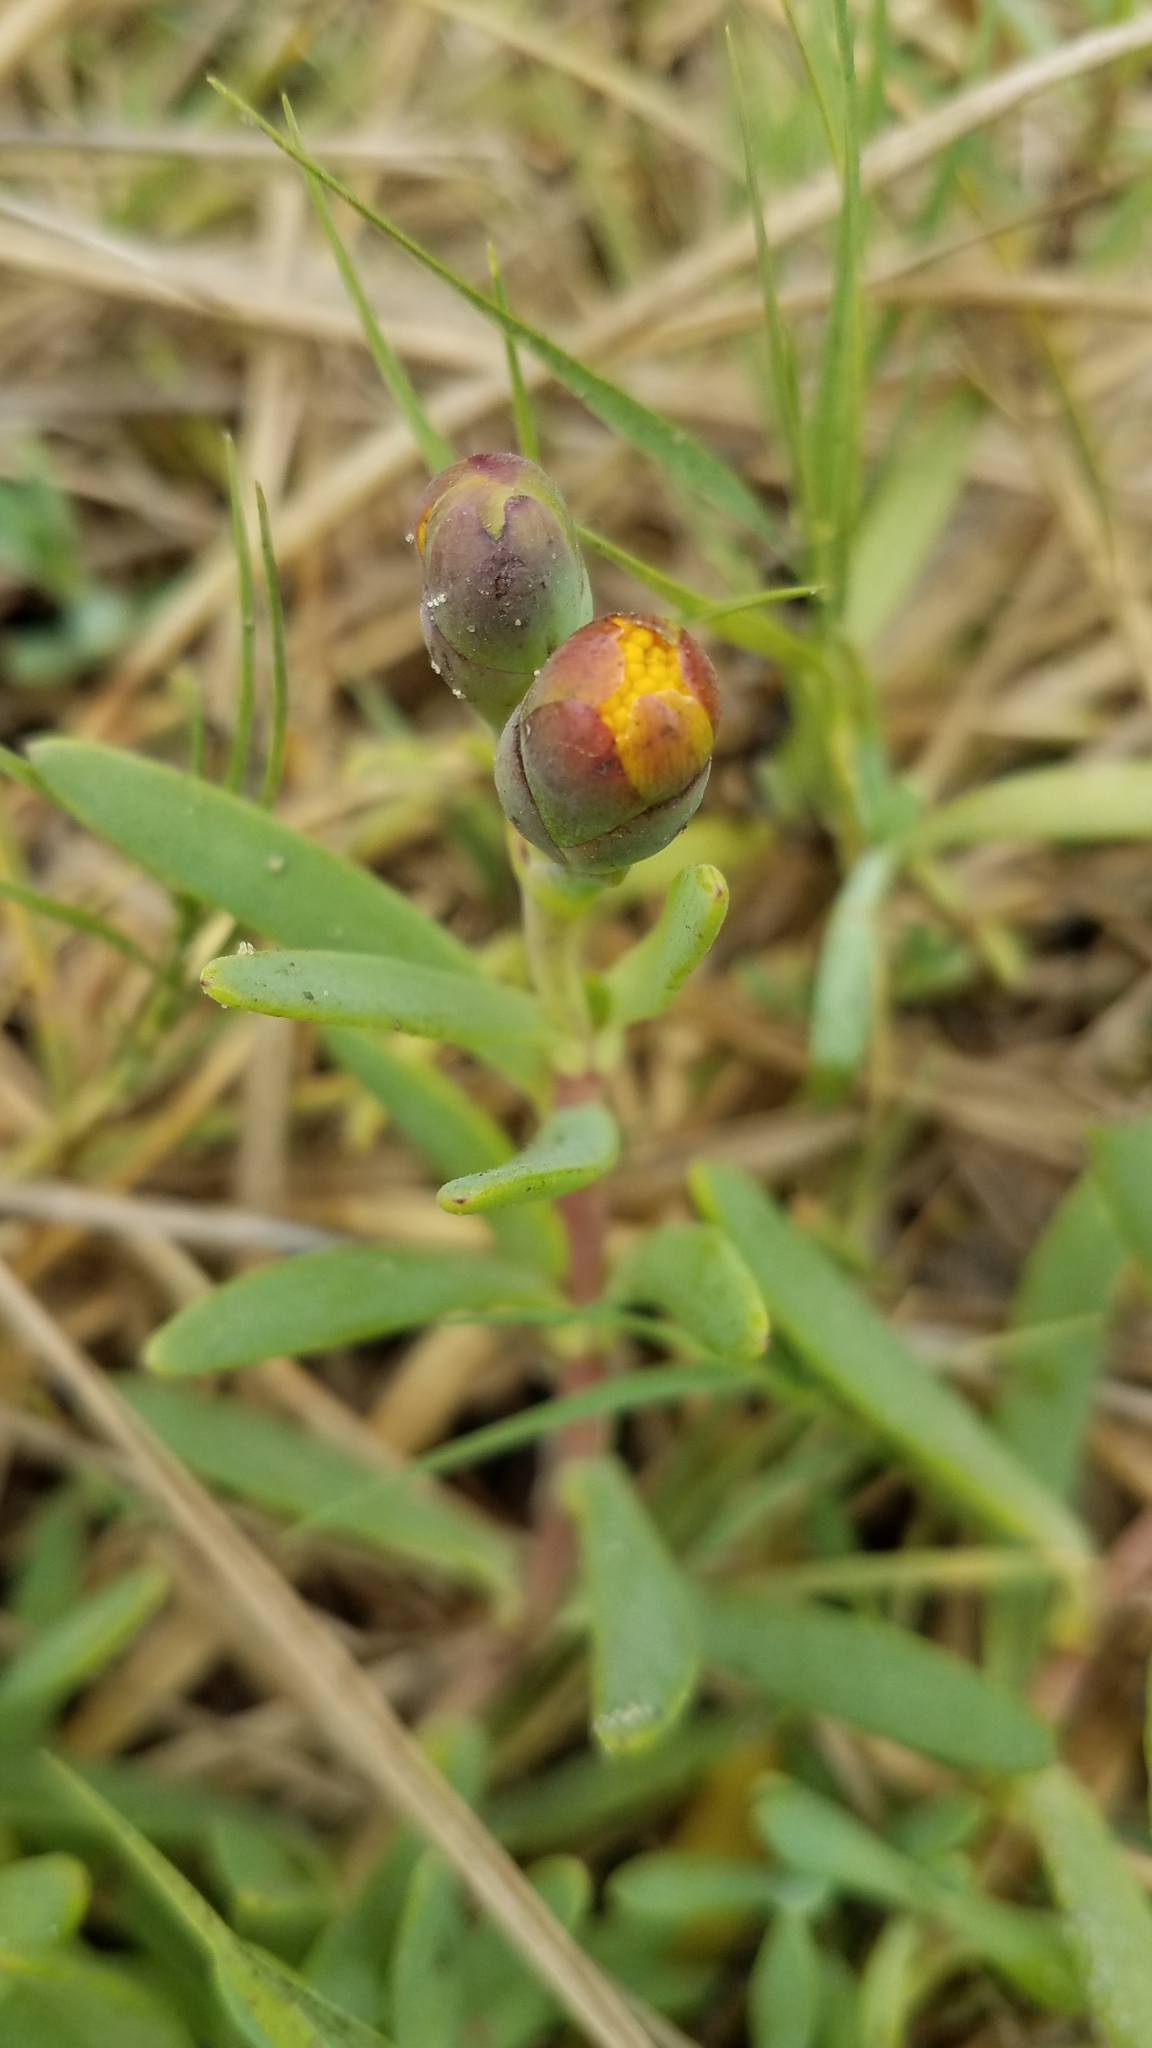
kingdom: Plantae
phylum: Tracheophyta
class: Magnoliopsida
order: Asterales
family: Asteraceae
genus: Jaumea
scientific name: Jaumea carnosa
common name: Fleshy jaumea
